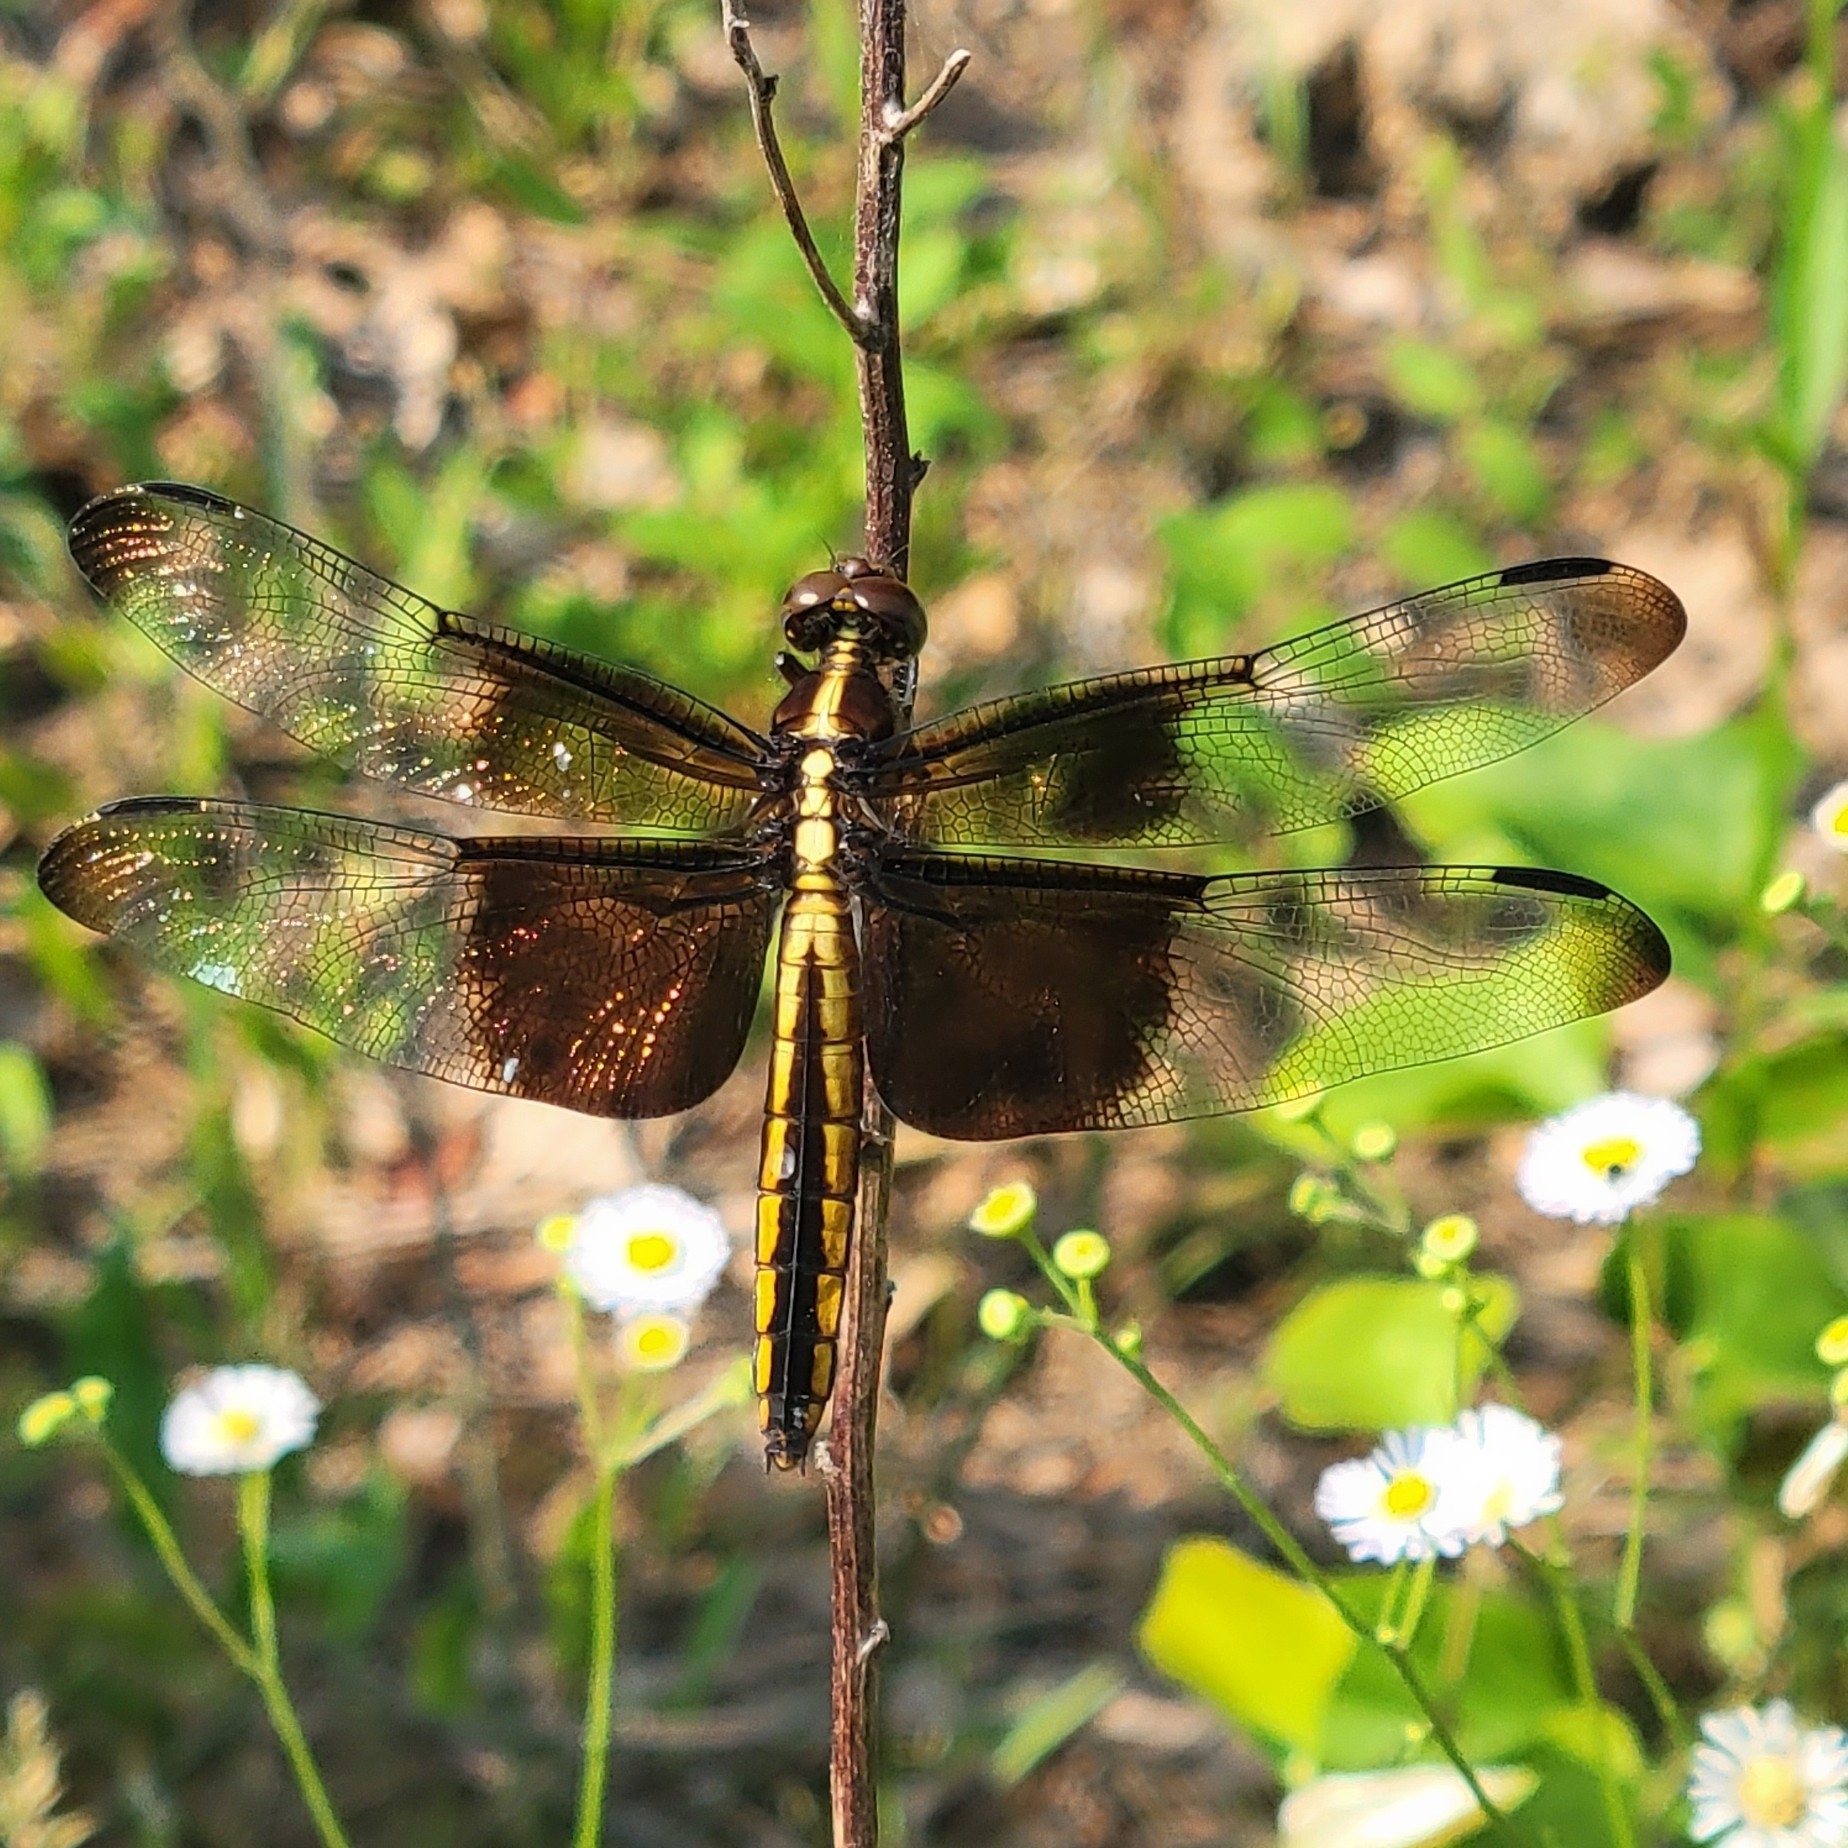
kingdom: Animalia
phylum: Arthropoda
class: Insecta
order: Odonata
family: Libellulidae
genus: Libellula
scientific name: Libellula luctuosa
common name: Widow skimmer
